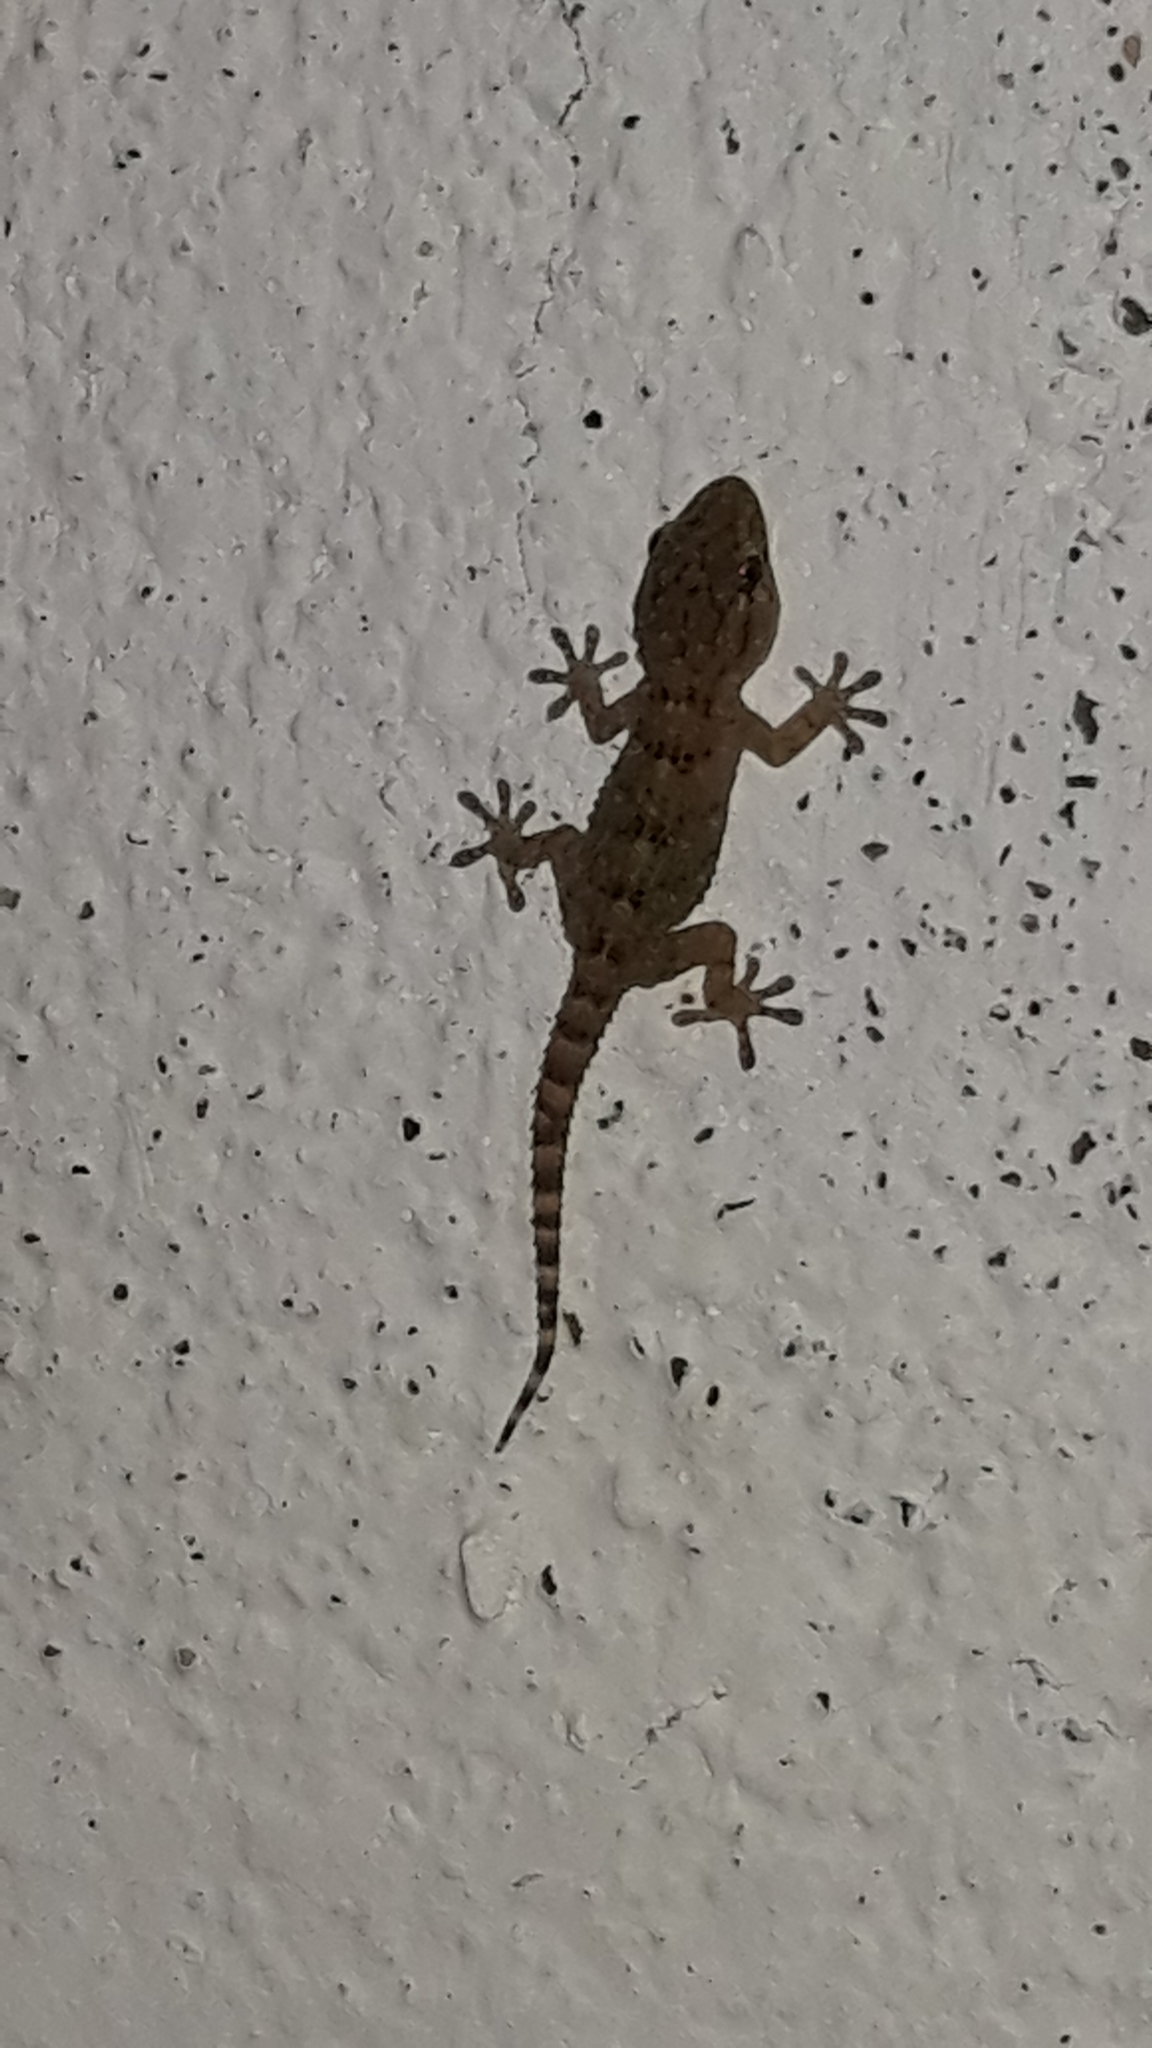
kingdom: Animalia
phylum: Chordata
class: Squamata
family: Phyllodactylidae
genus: Tarentola
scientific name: Tarentola mauritanica
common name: Moorish gecko
